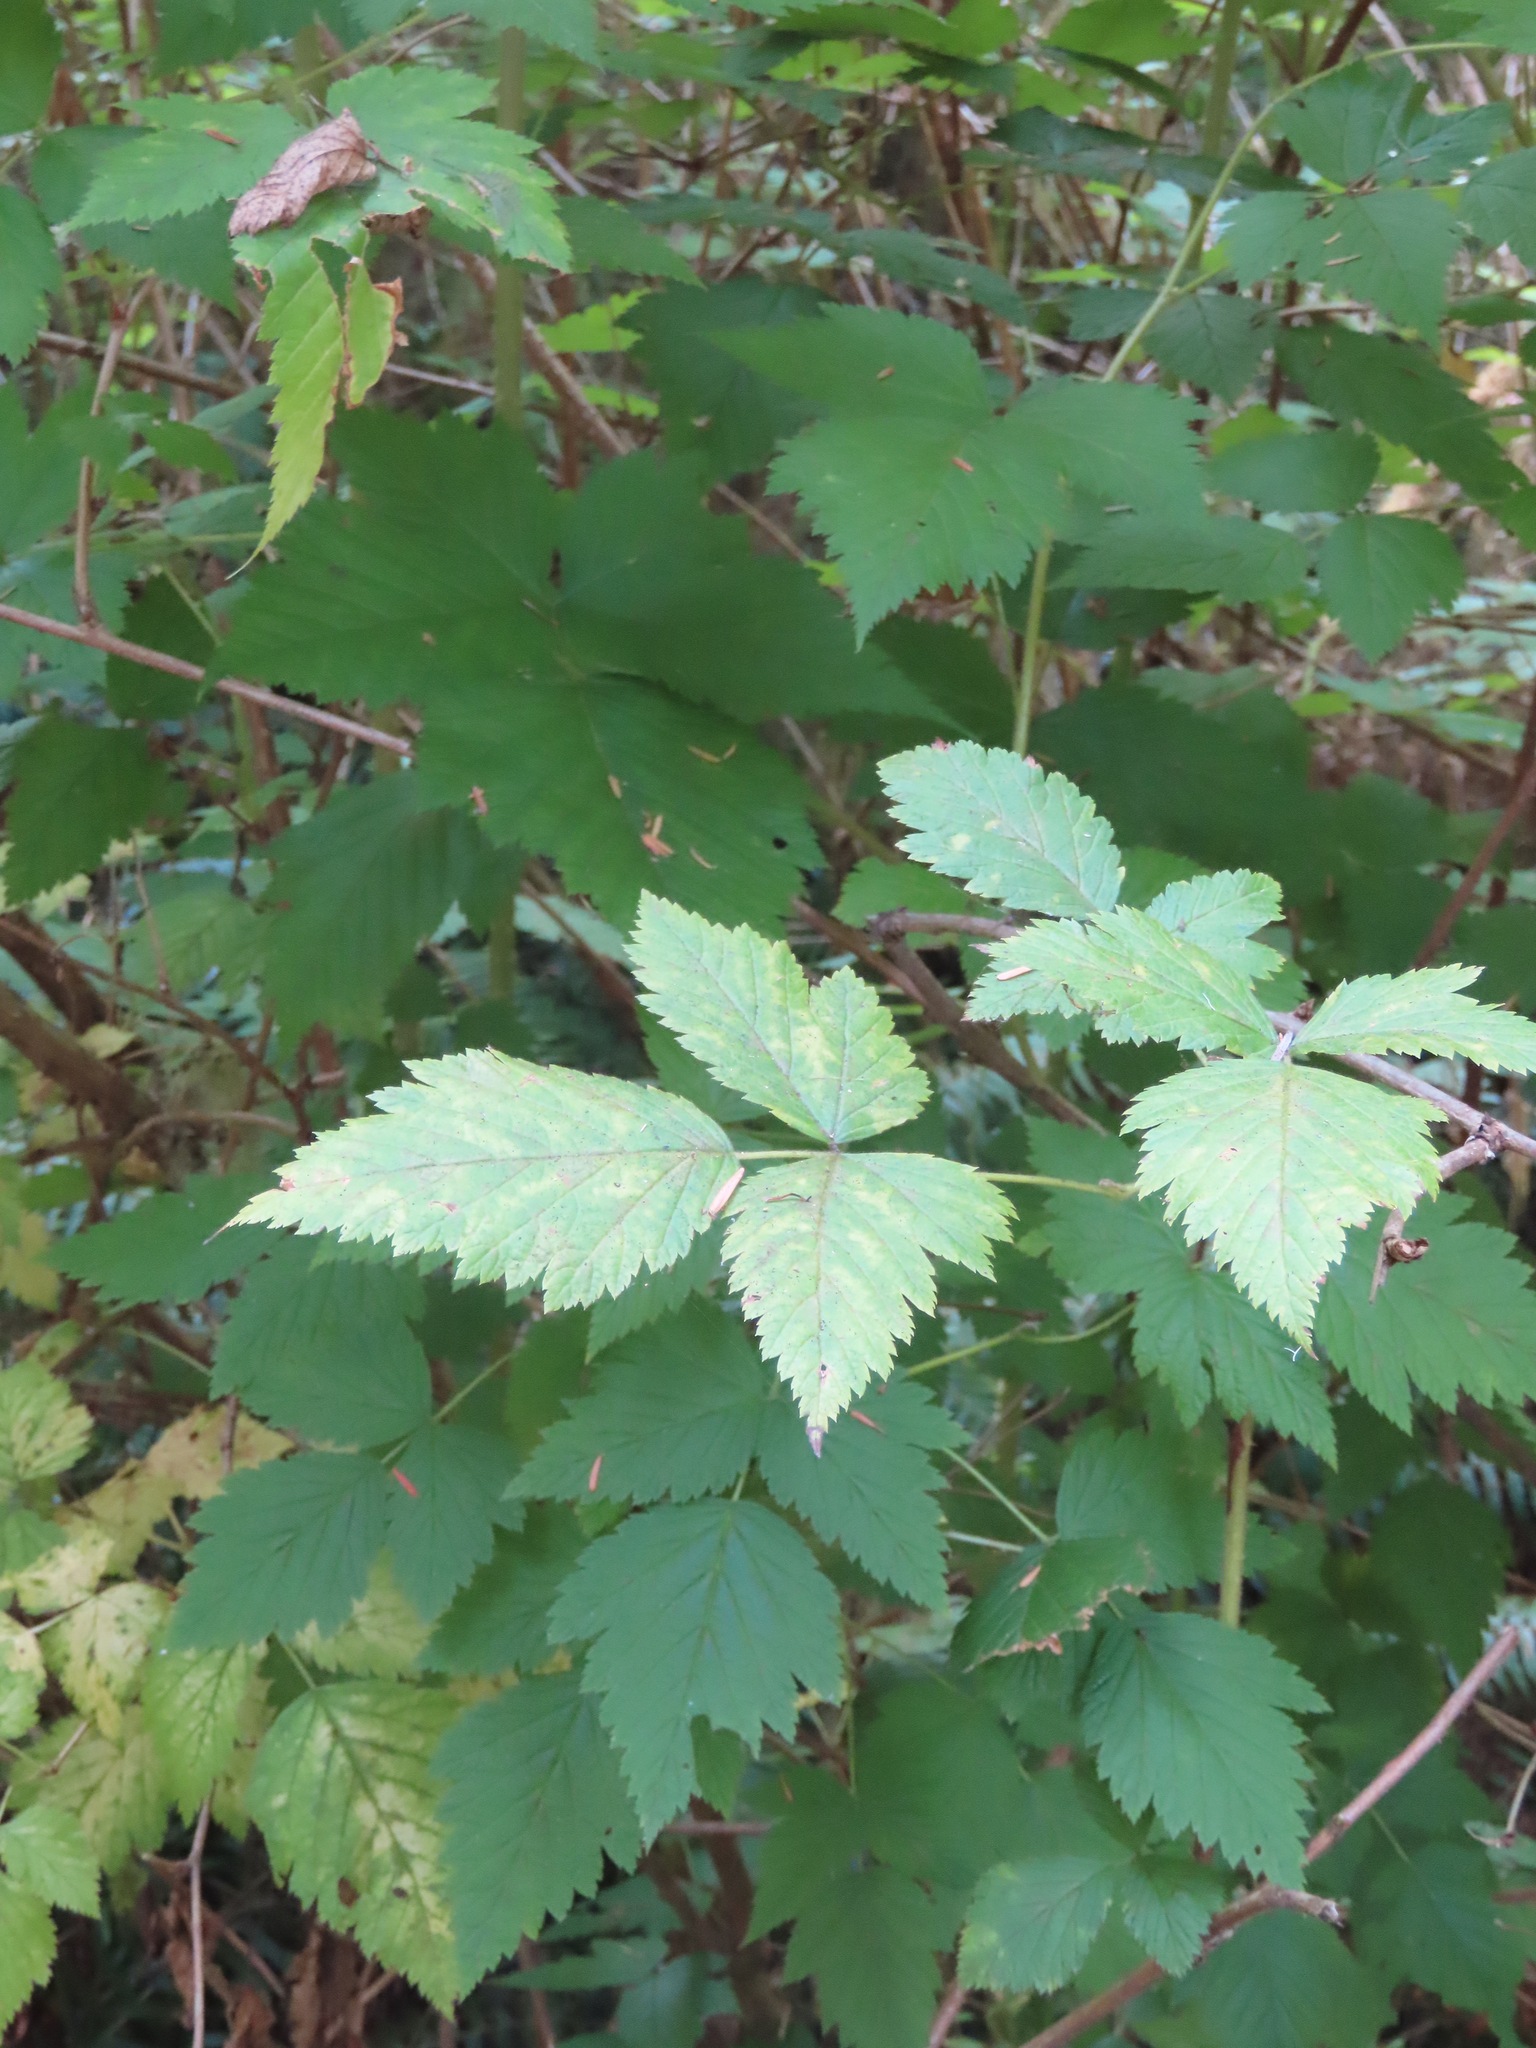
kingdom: Plantae
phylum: Tracheophyta
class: Magnoliopsida
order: Rosales
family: Rosaceae
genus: Rubus
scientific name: Rubus spectabilis
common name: Salmonberry
